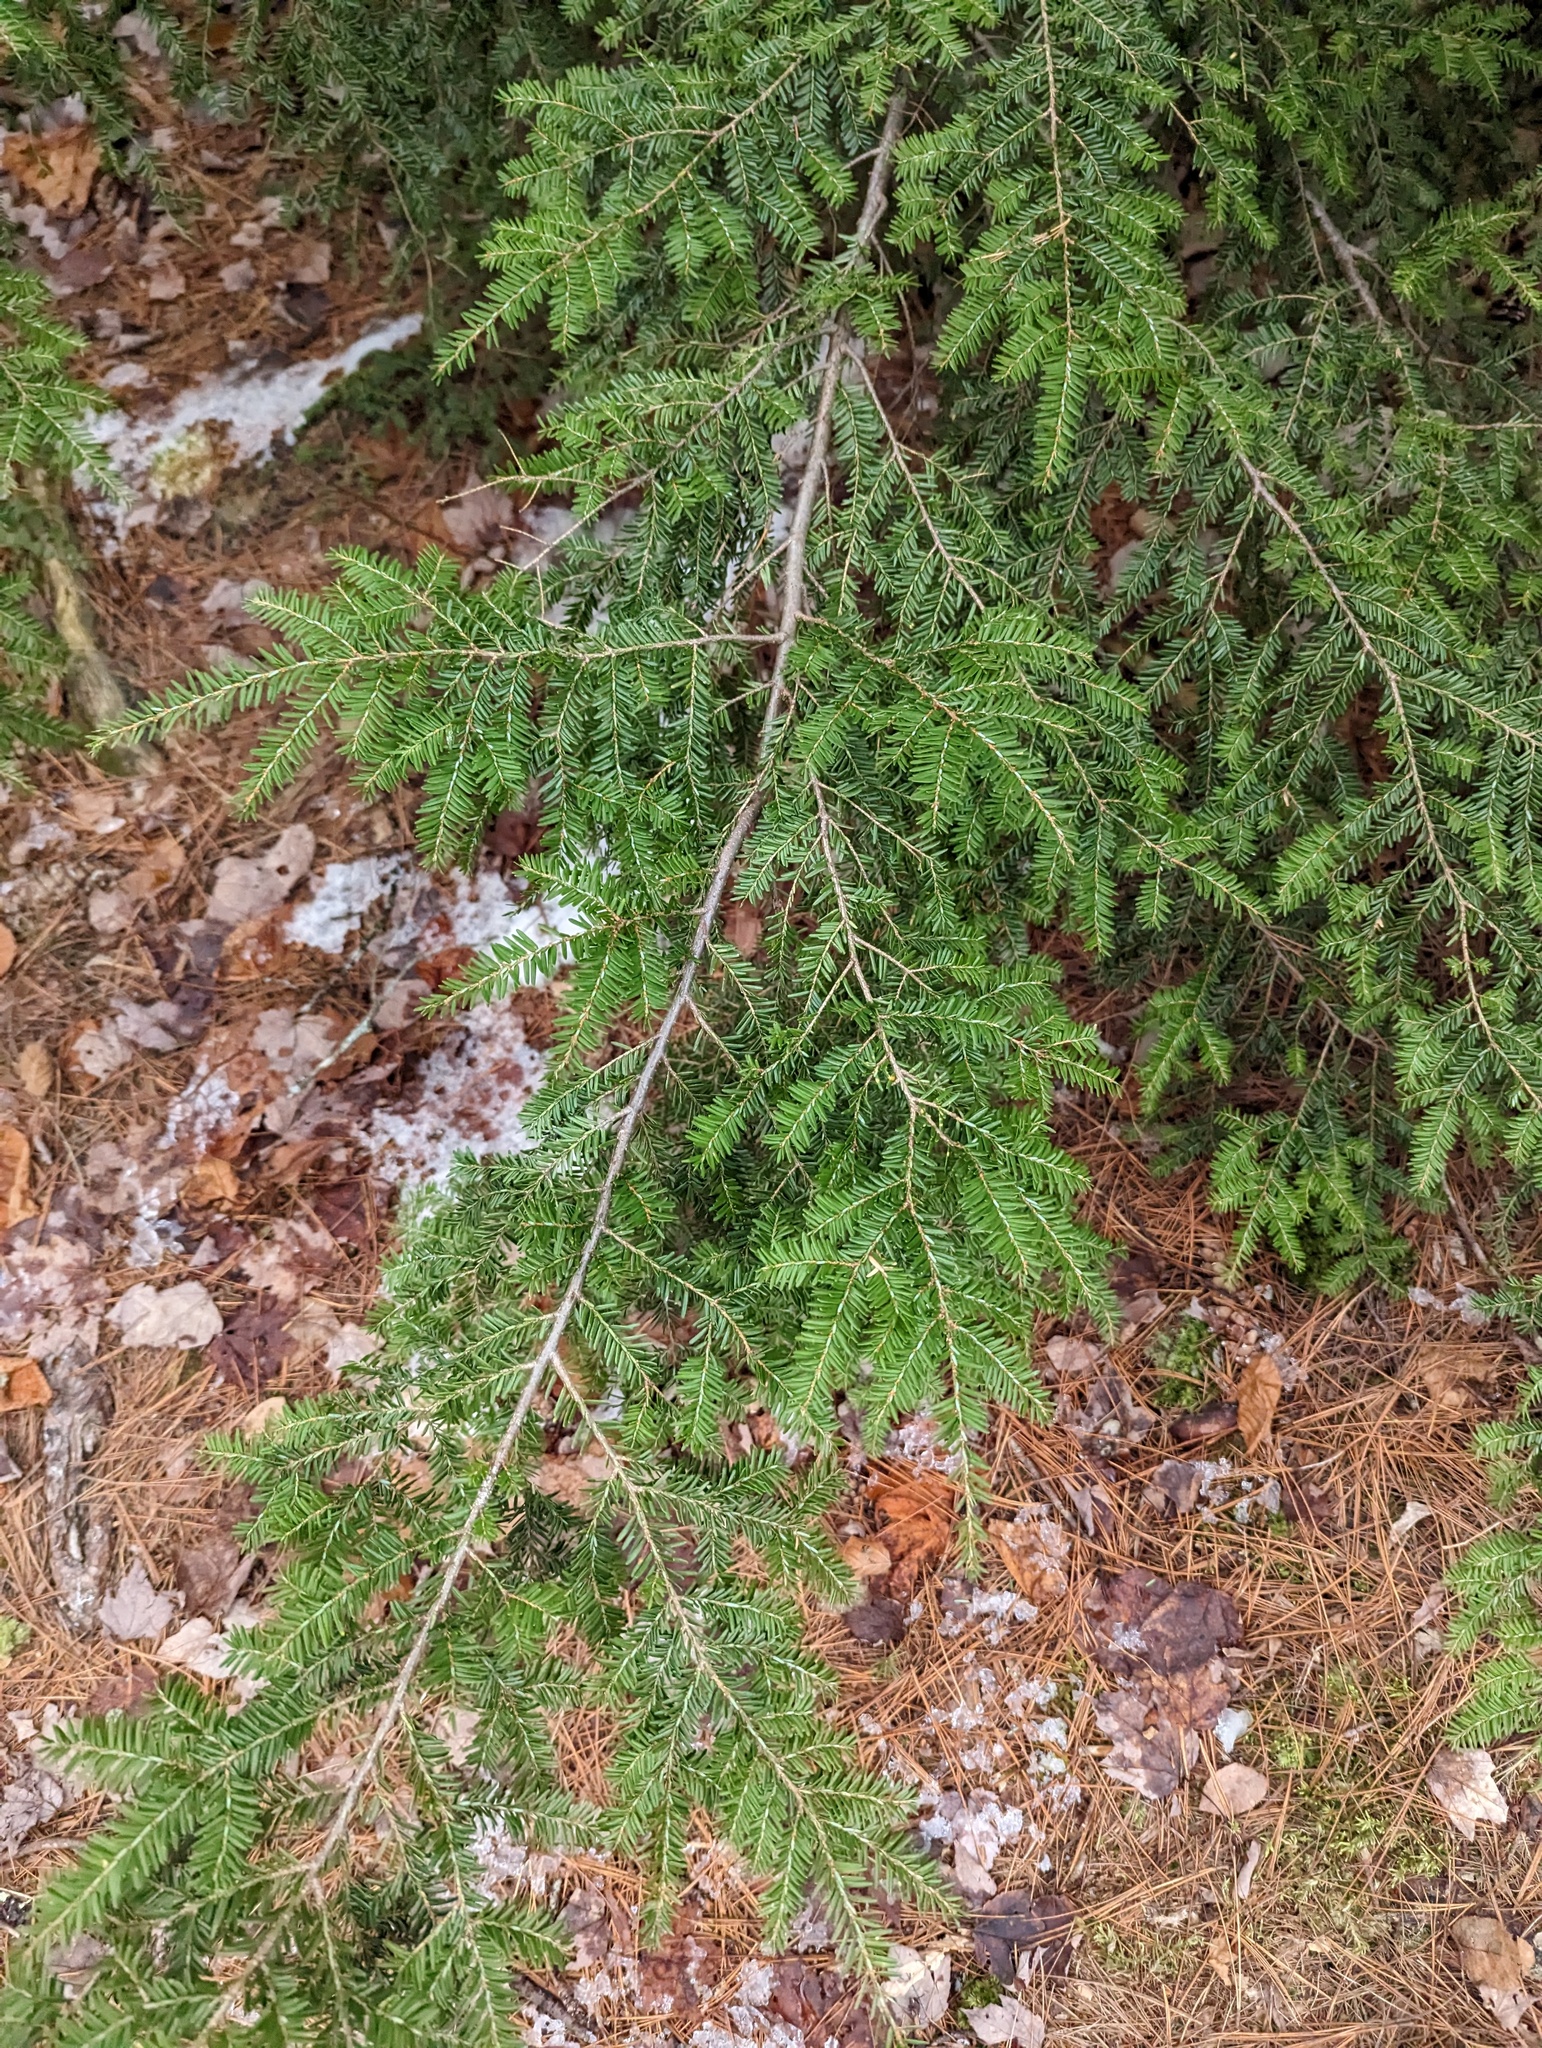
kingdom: Plantae
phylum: Tracheophyta
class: Pinopsida
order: Pinales
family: Pinaceae
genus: Tsuga
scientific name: Tsuga canadensis
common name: Eastern hemlock
